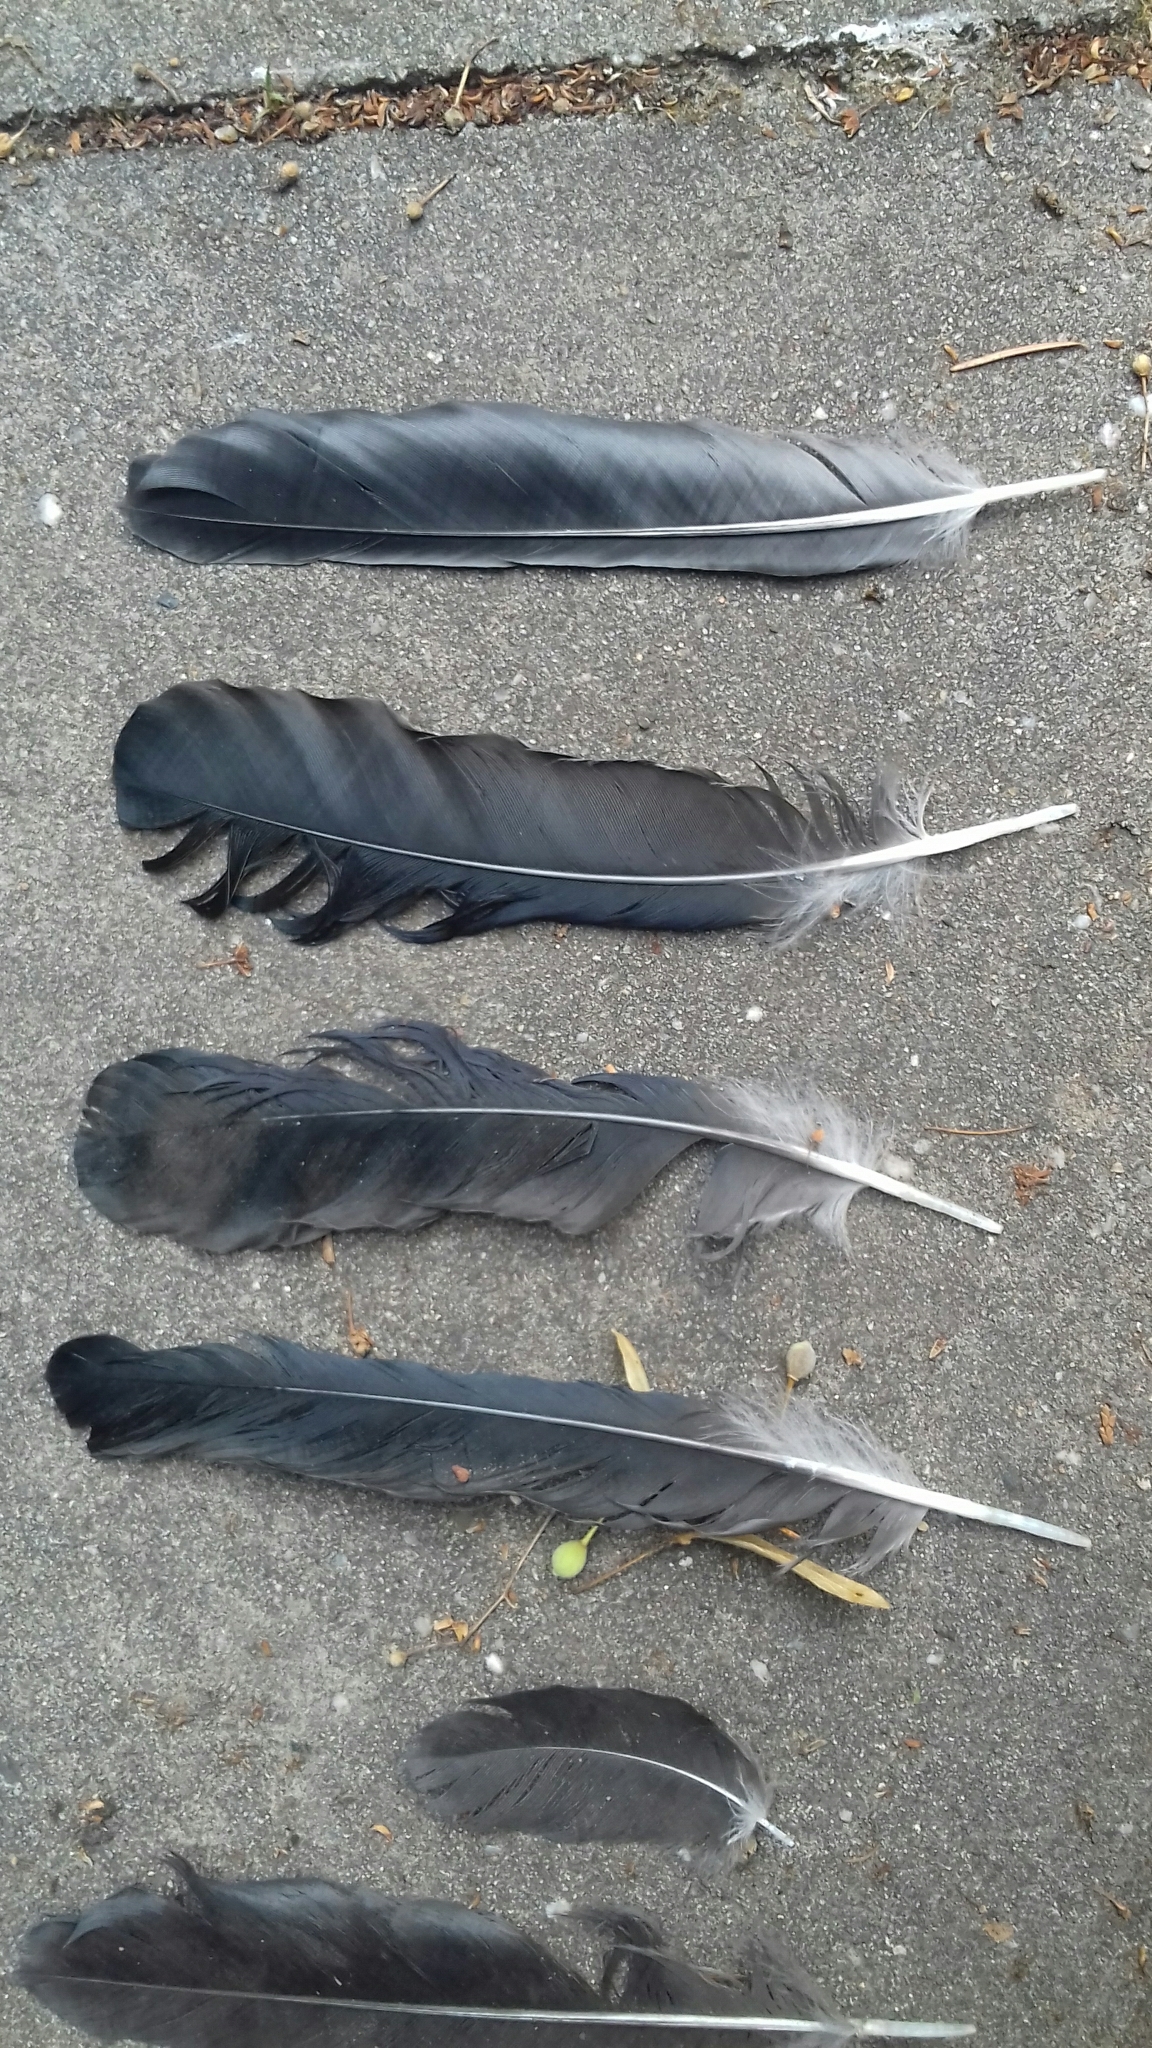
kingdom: Animalia
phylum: Chordata
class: Aves
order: Passeriformes
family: Corvidae
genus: Corvus
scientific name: Corvus cornix
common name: Hooded crow
